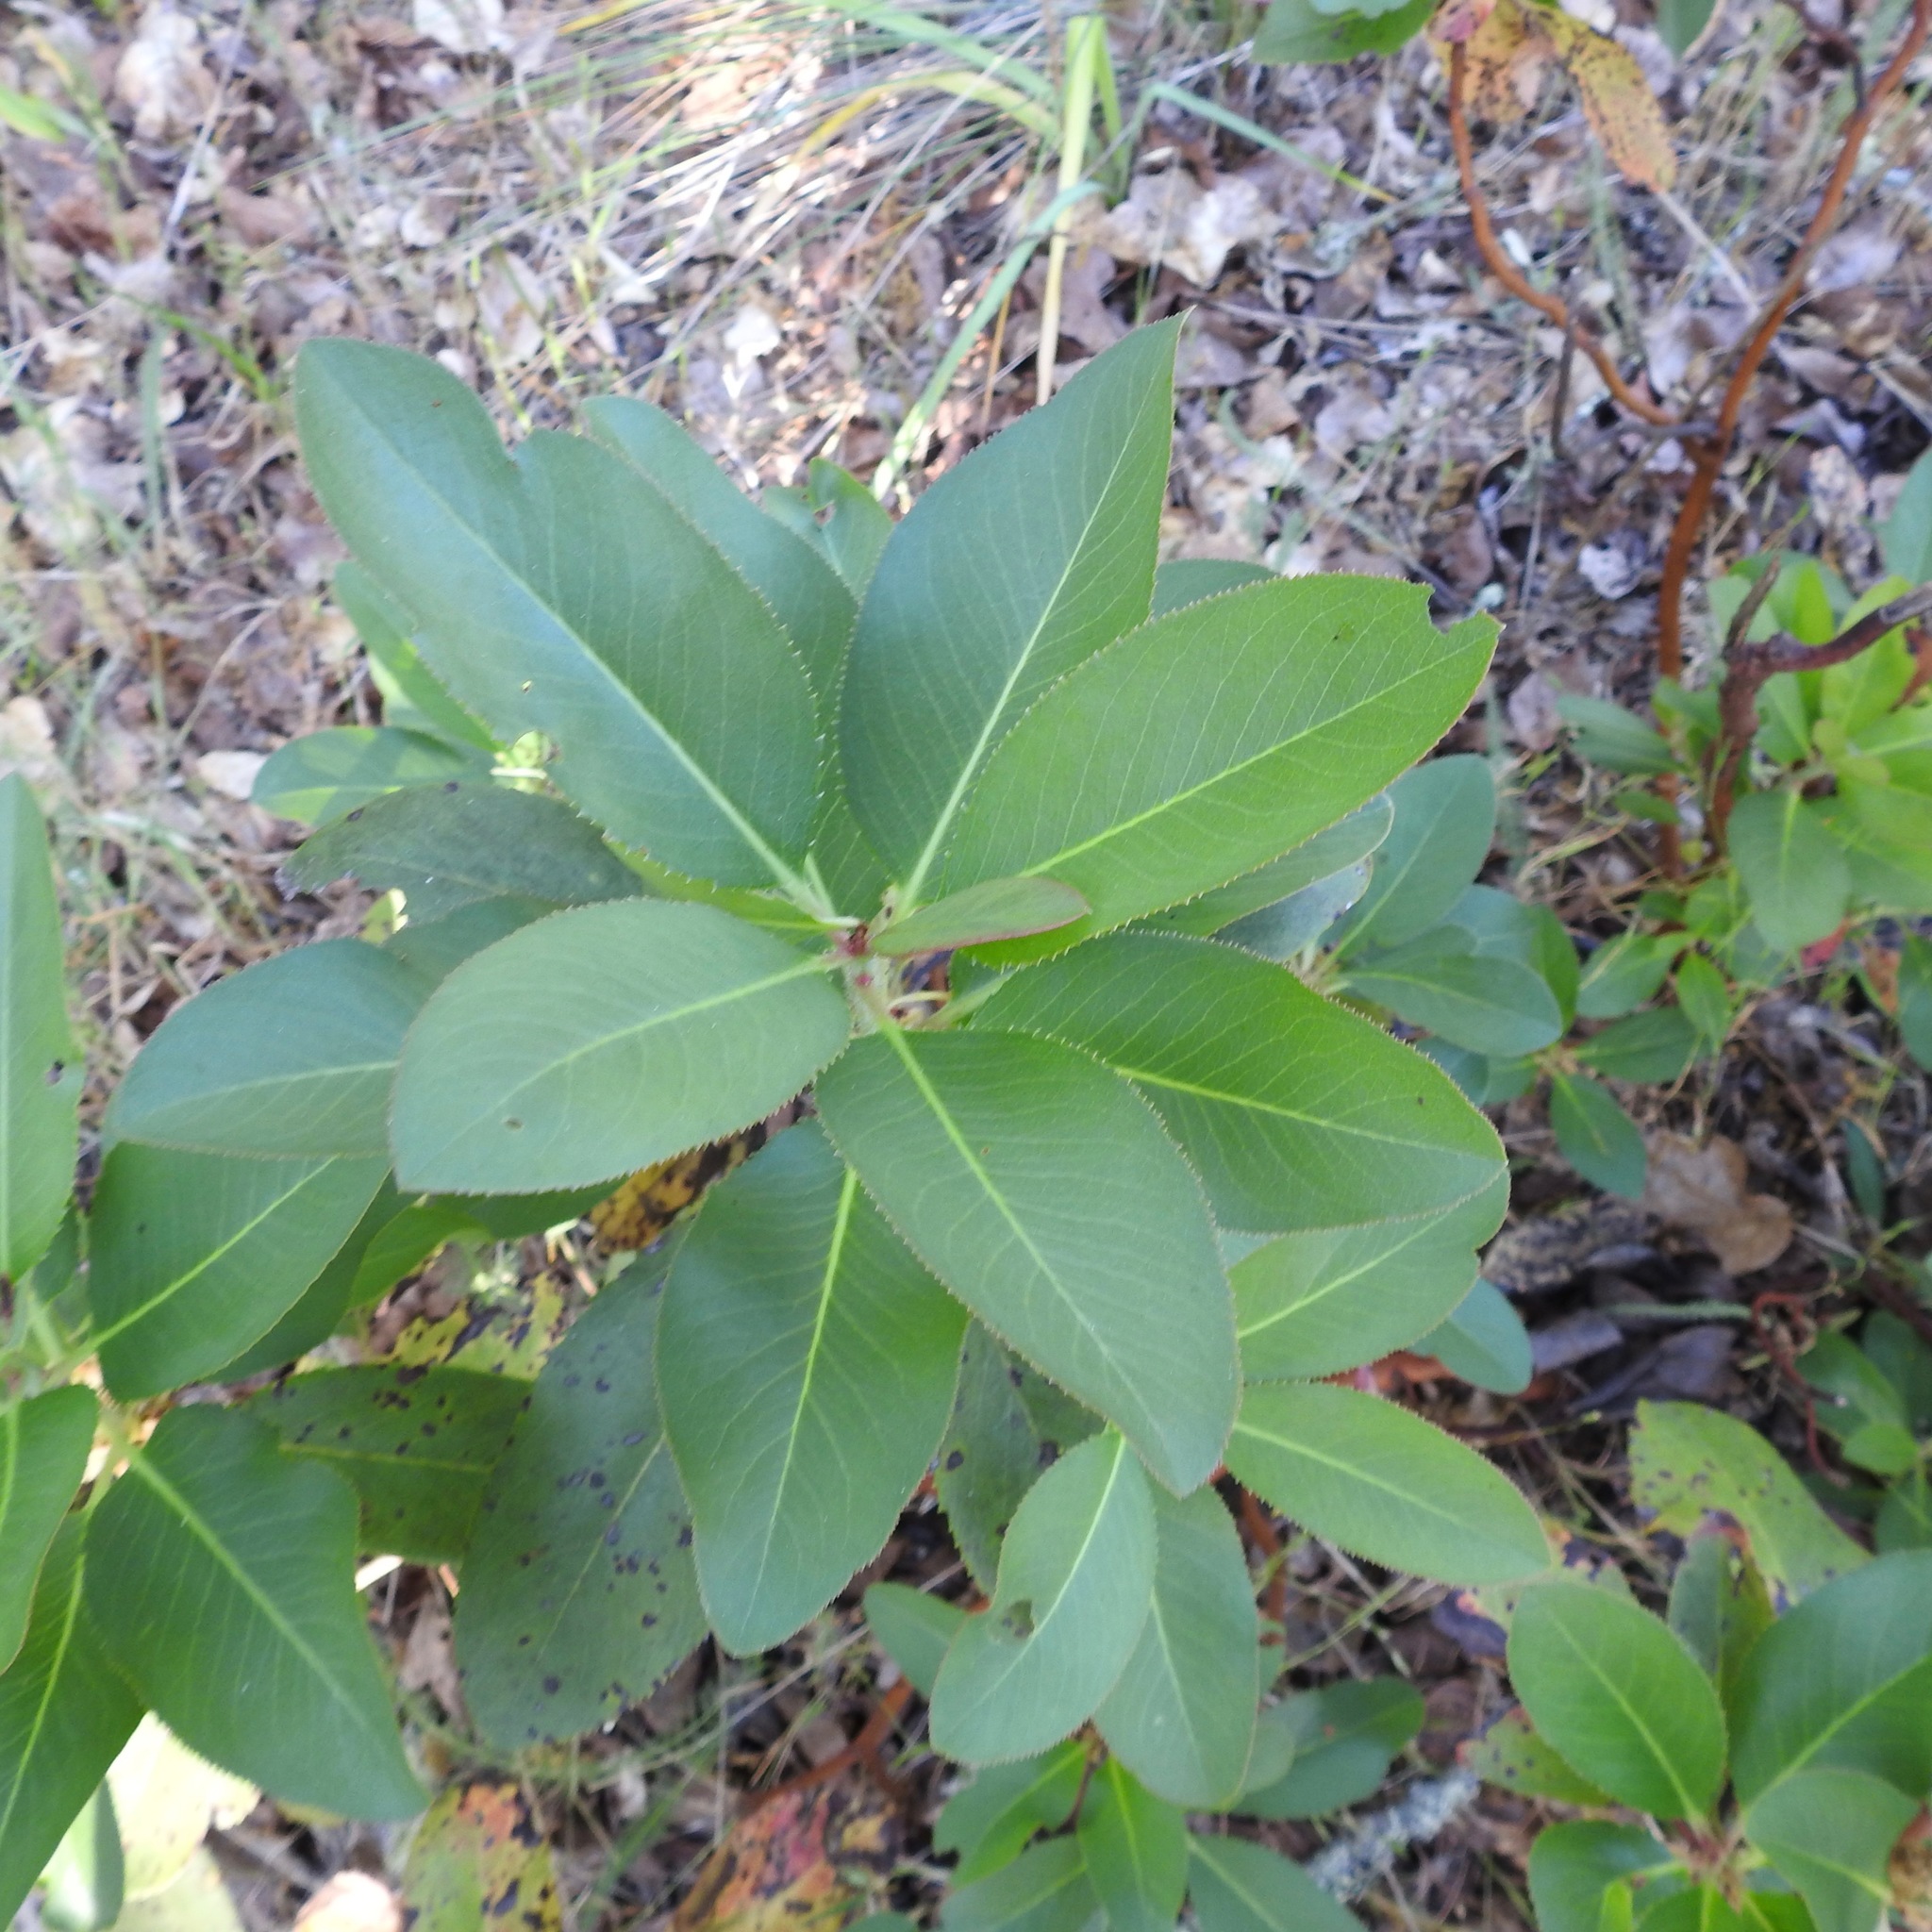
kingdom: Plantae
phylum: Tracheophyta
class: Magnoliopsida
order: Ericales
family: Ericaceae
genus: Arbutus
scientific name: Arbutus menziesii
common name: Pacific madrone
